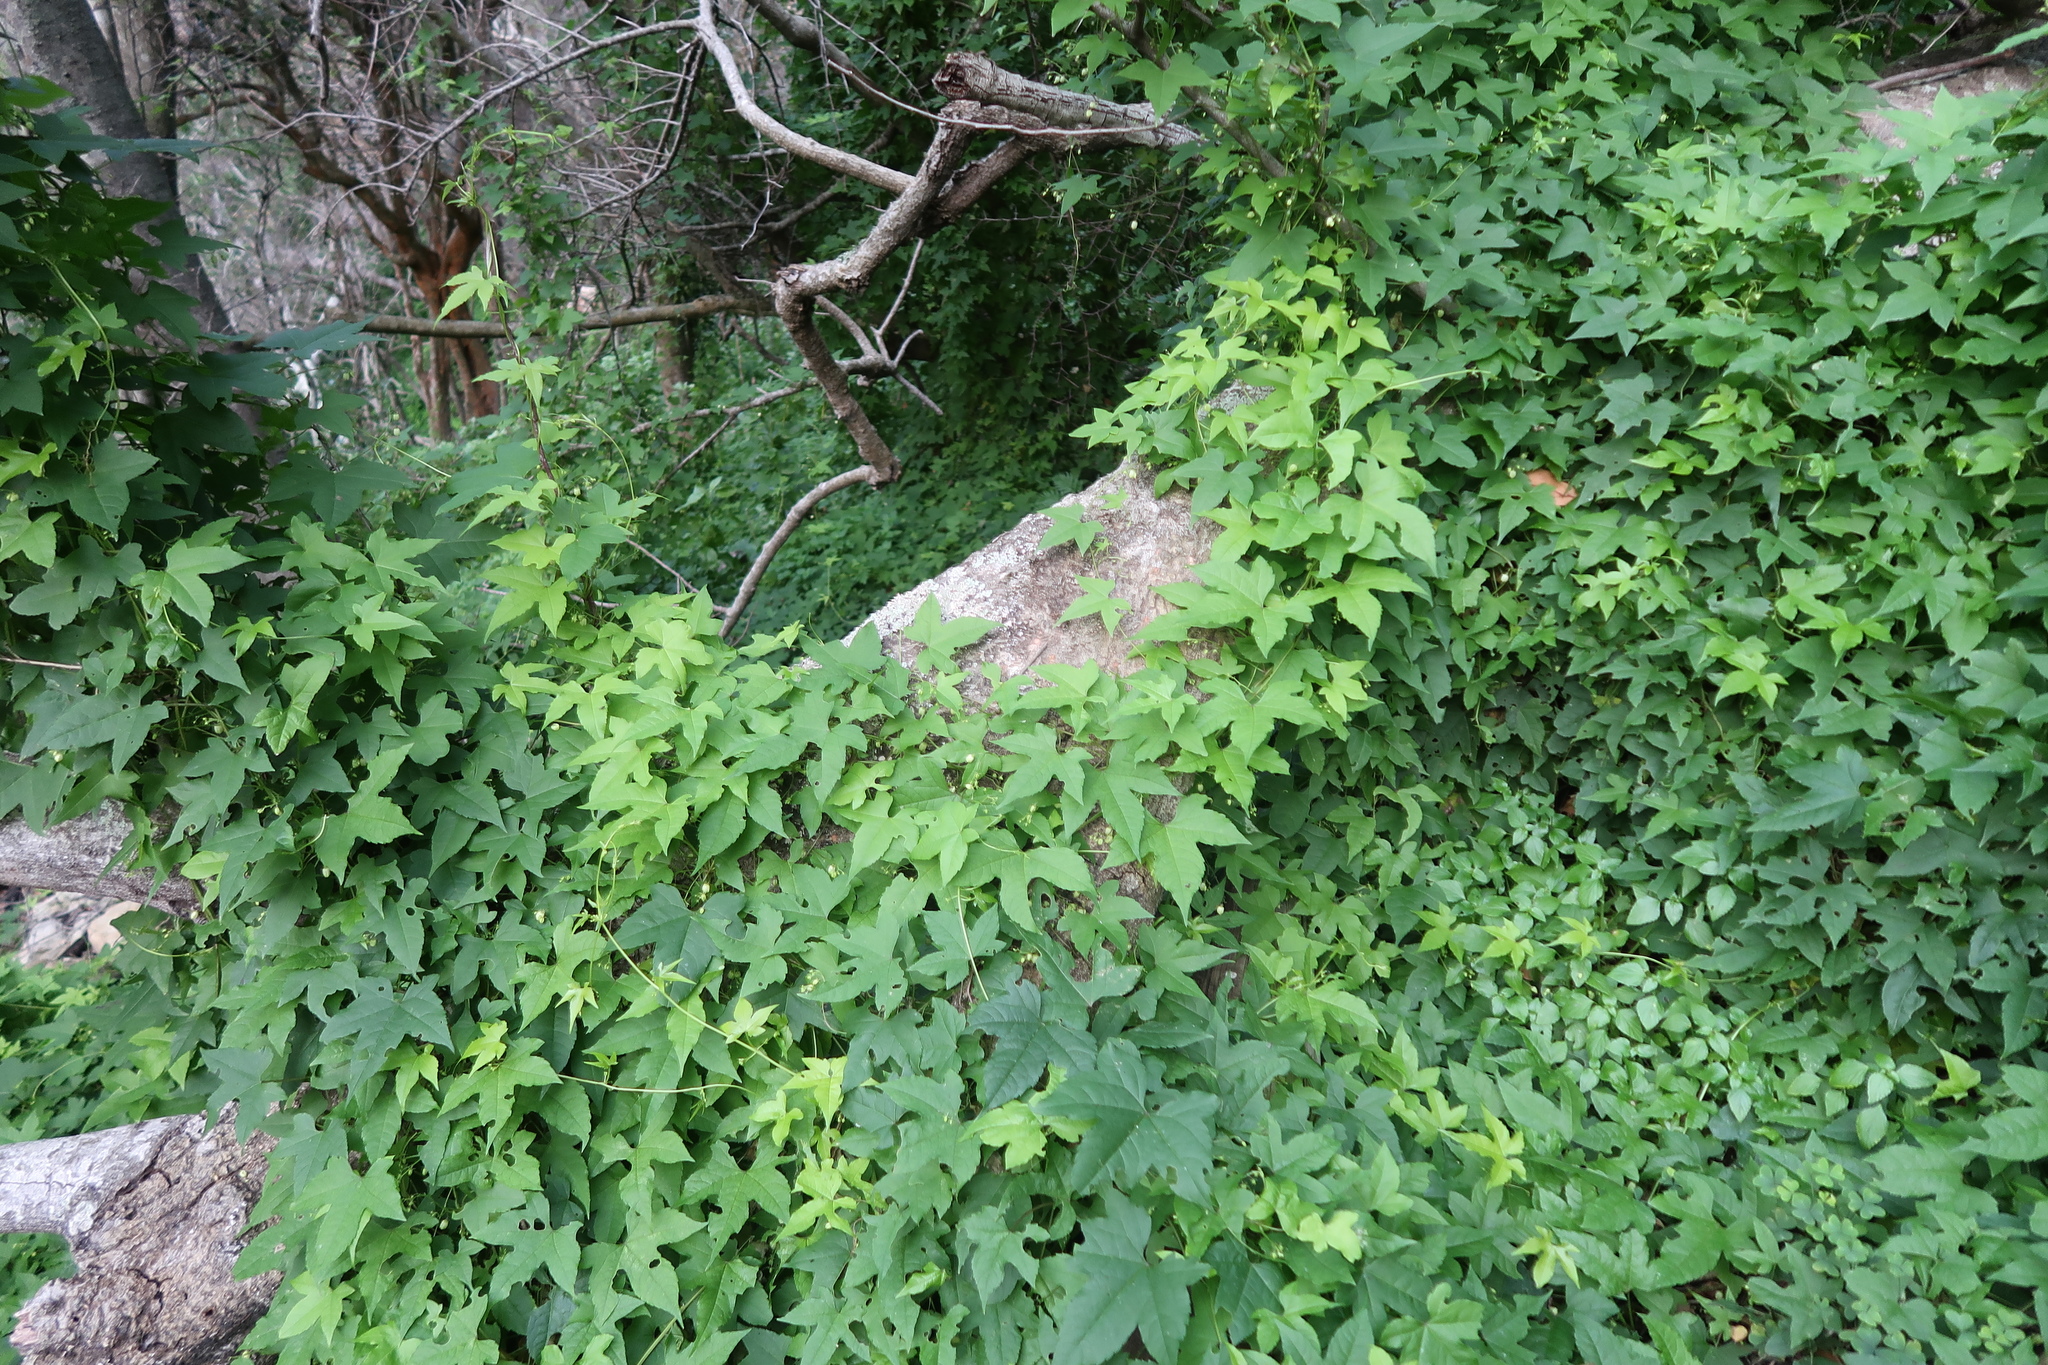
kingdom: Plantae
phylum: Tracheophyta
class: Magnoliopsida
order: Malpighiales
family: Achariaceae
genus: Ceratiosicyos
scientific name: Ceratiosicyos laevis
